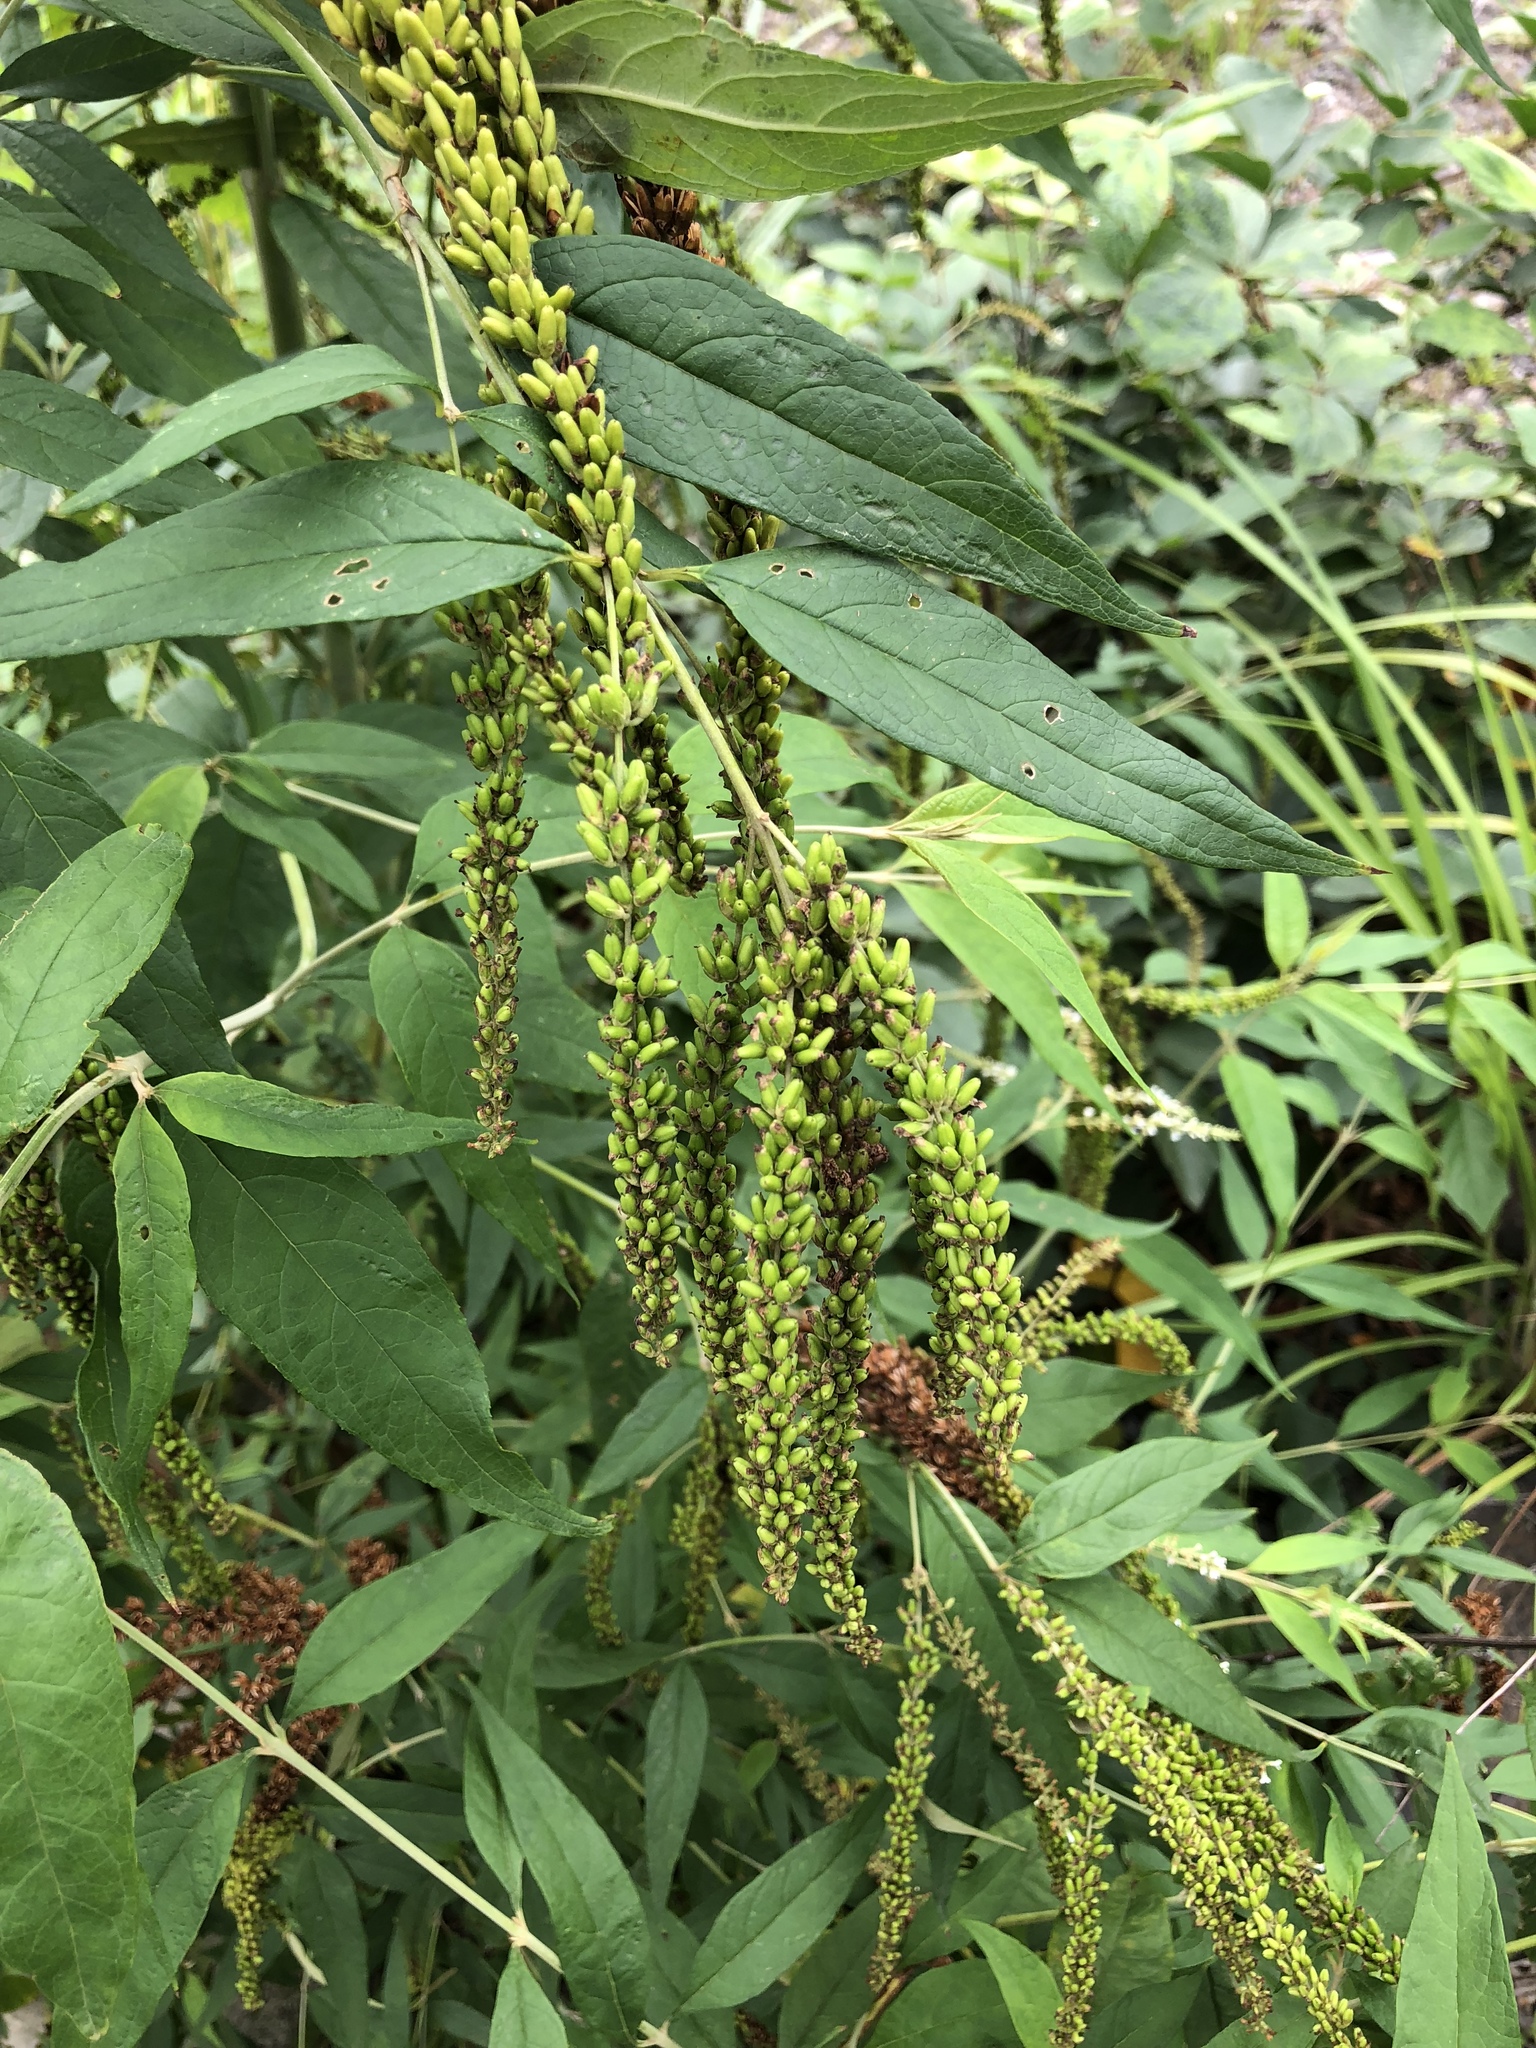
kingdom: Plantae
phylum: Tracheophyta
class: Magnoliopsida
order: Lamiales
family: Scrophulariaceae
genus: Buddleja
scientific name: Buddleja asiatica
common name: Dog tail
